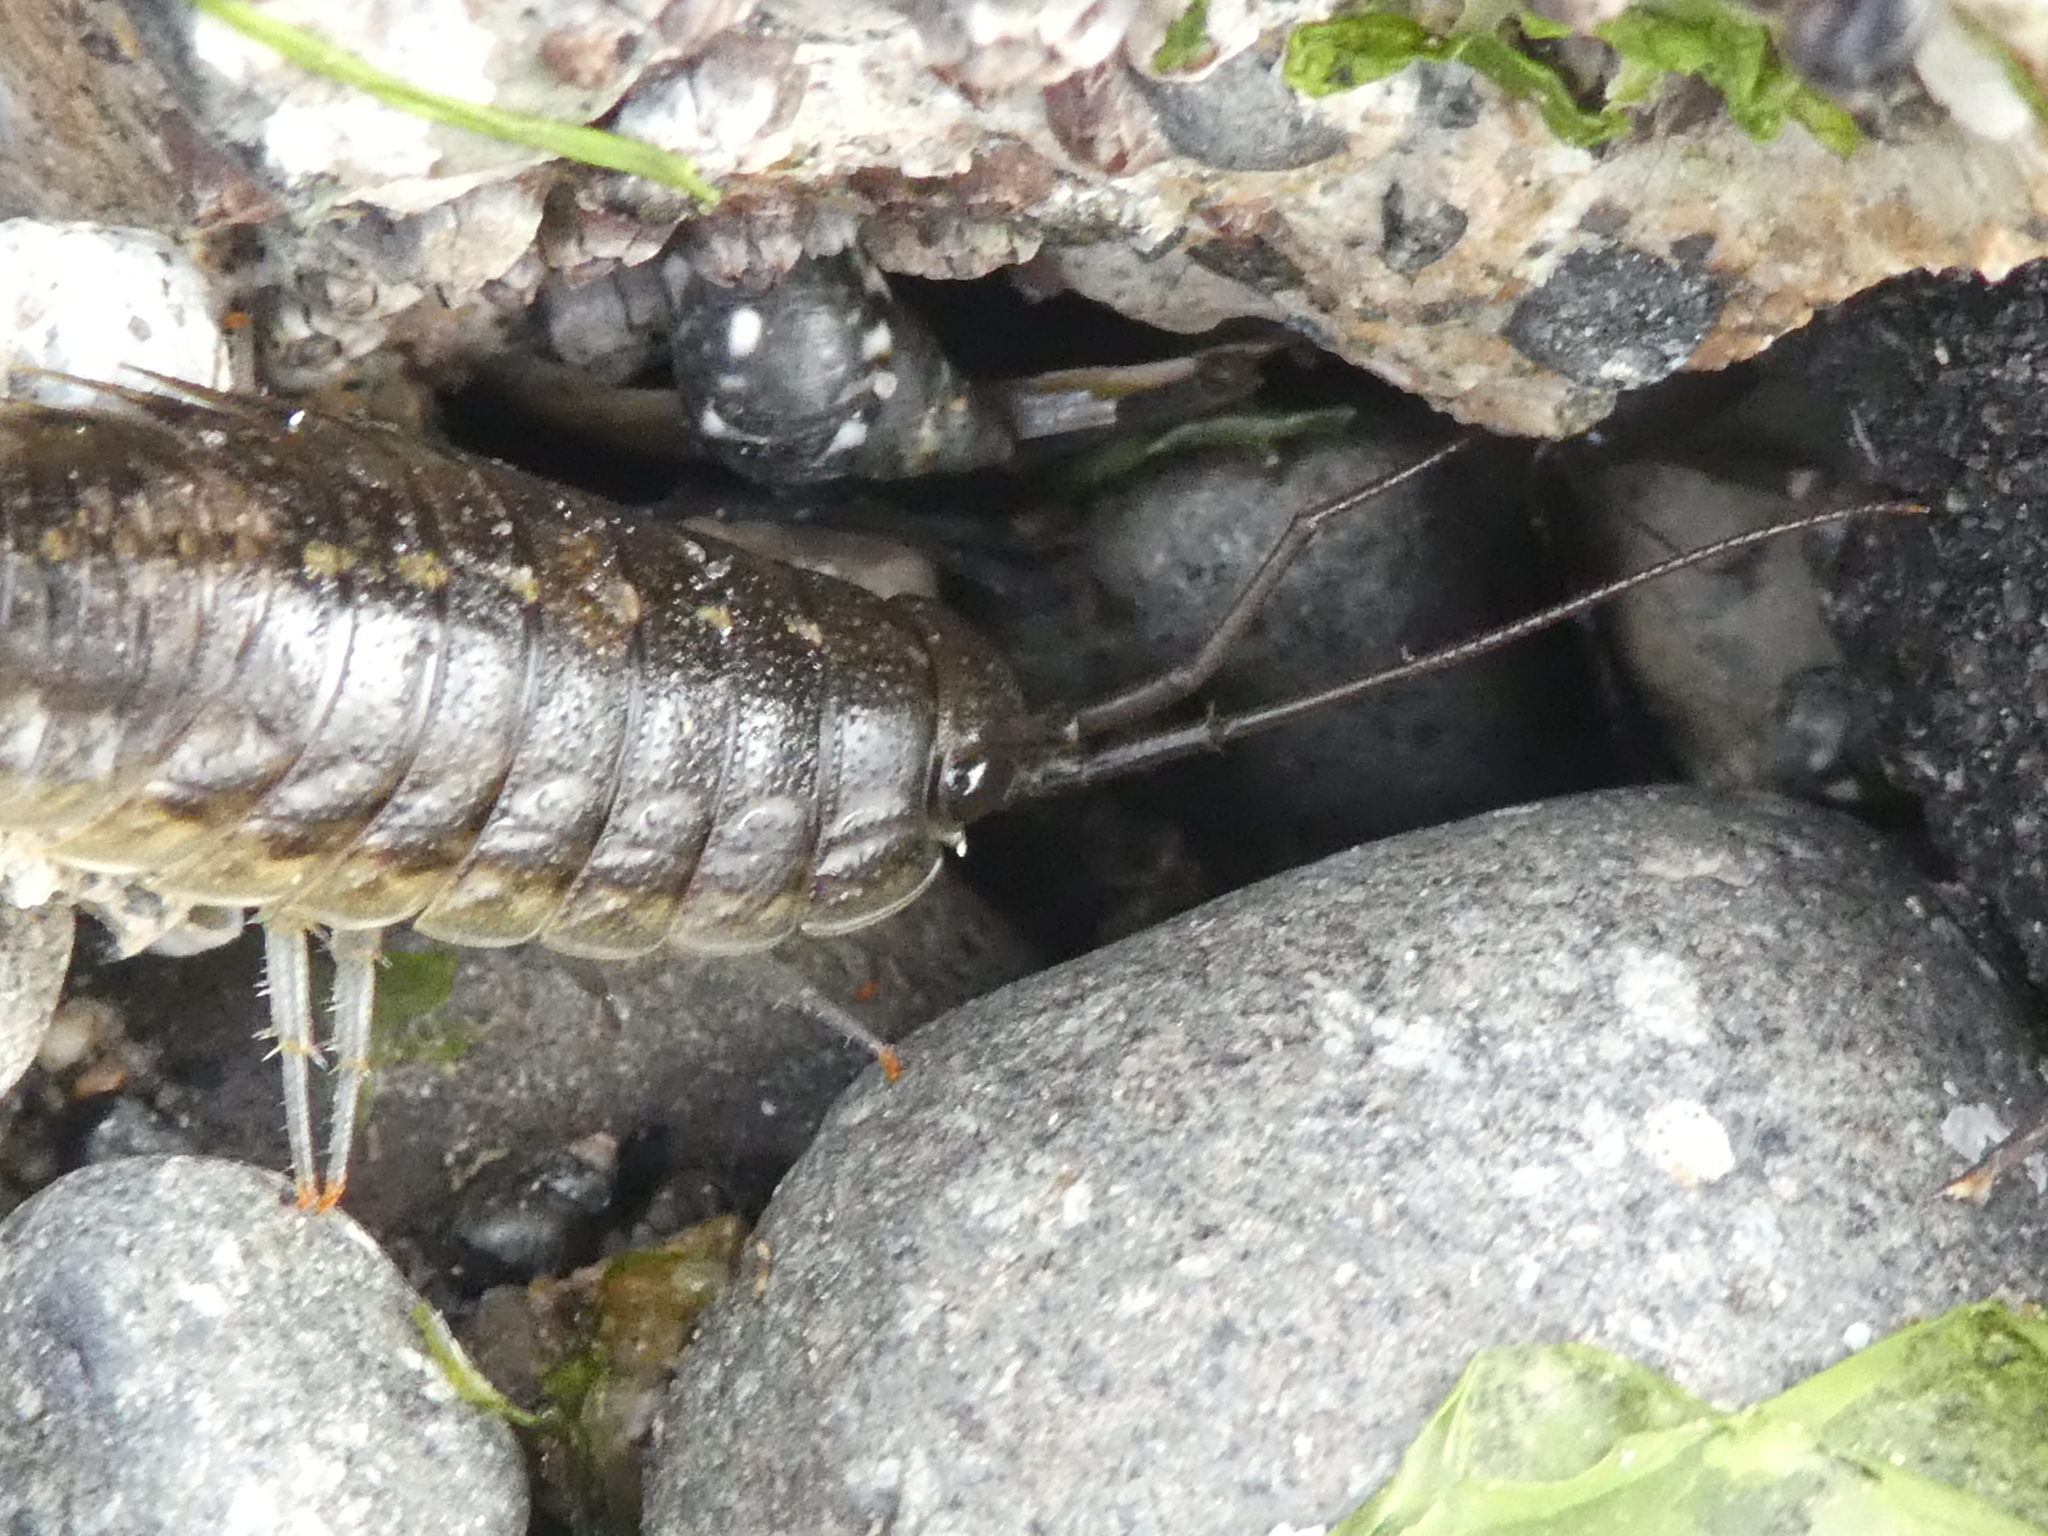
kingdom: Animalia
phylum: Arthropoda
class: Malacostraca
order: Isopoda
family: Ligiidae
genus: Ligia
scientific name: Ligia occidentalis
